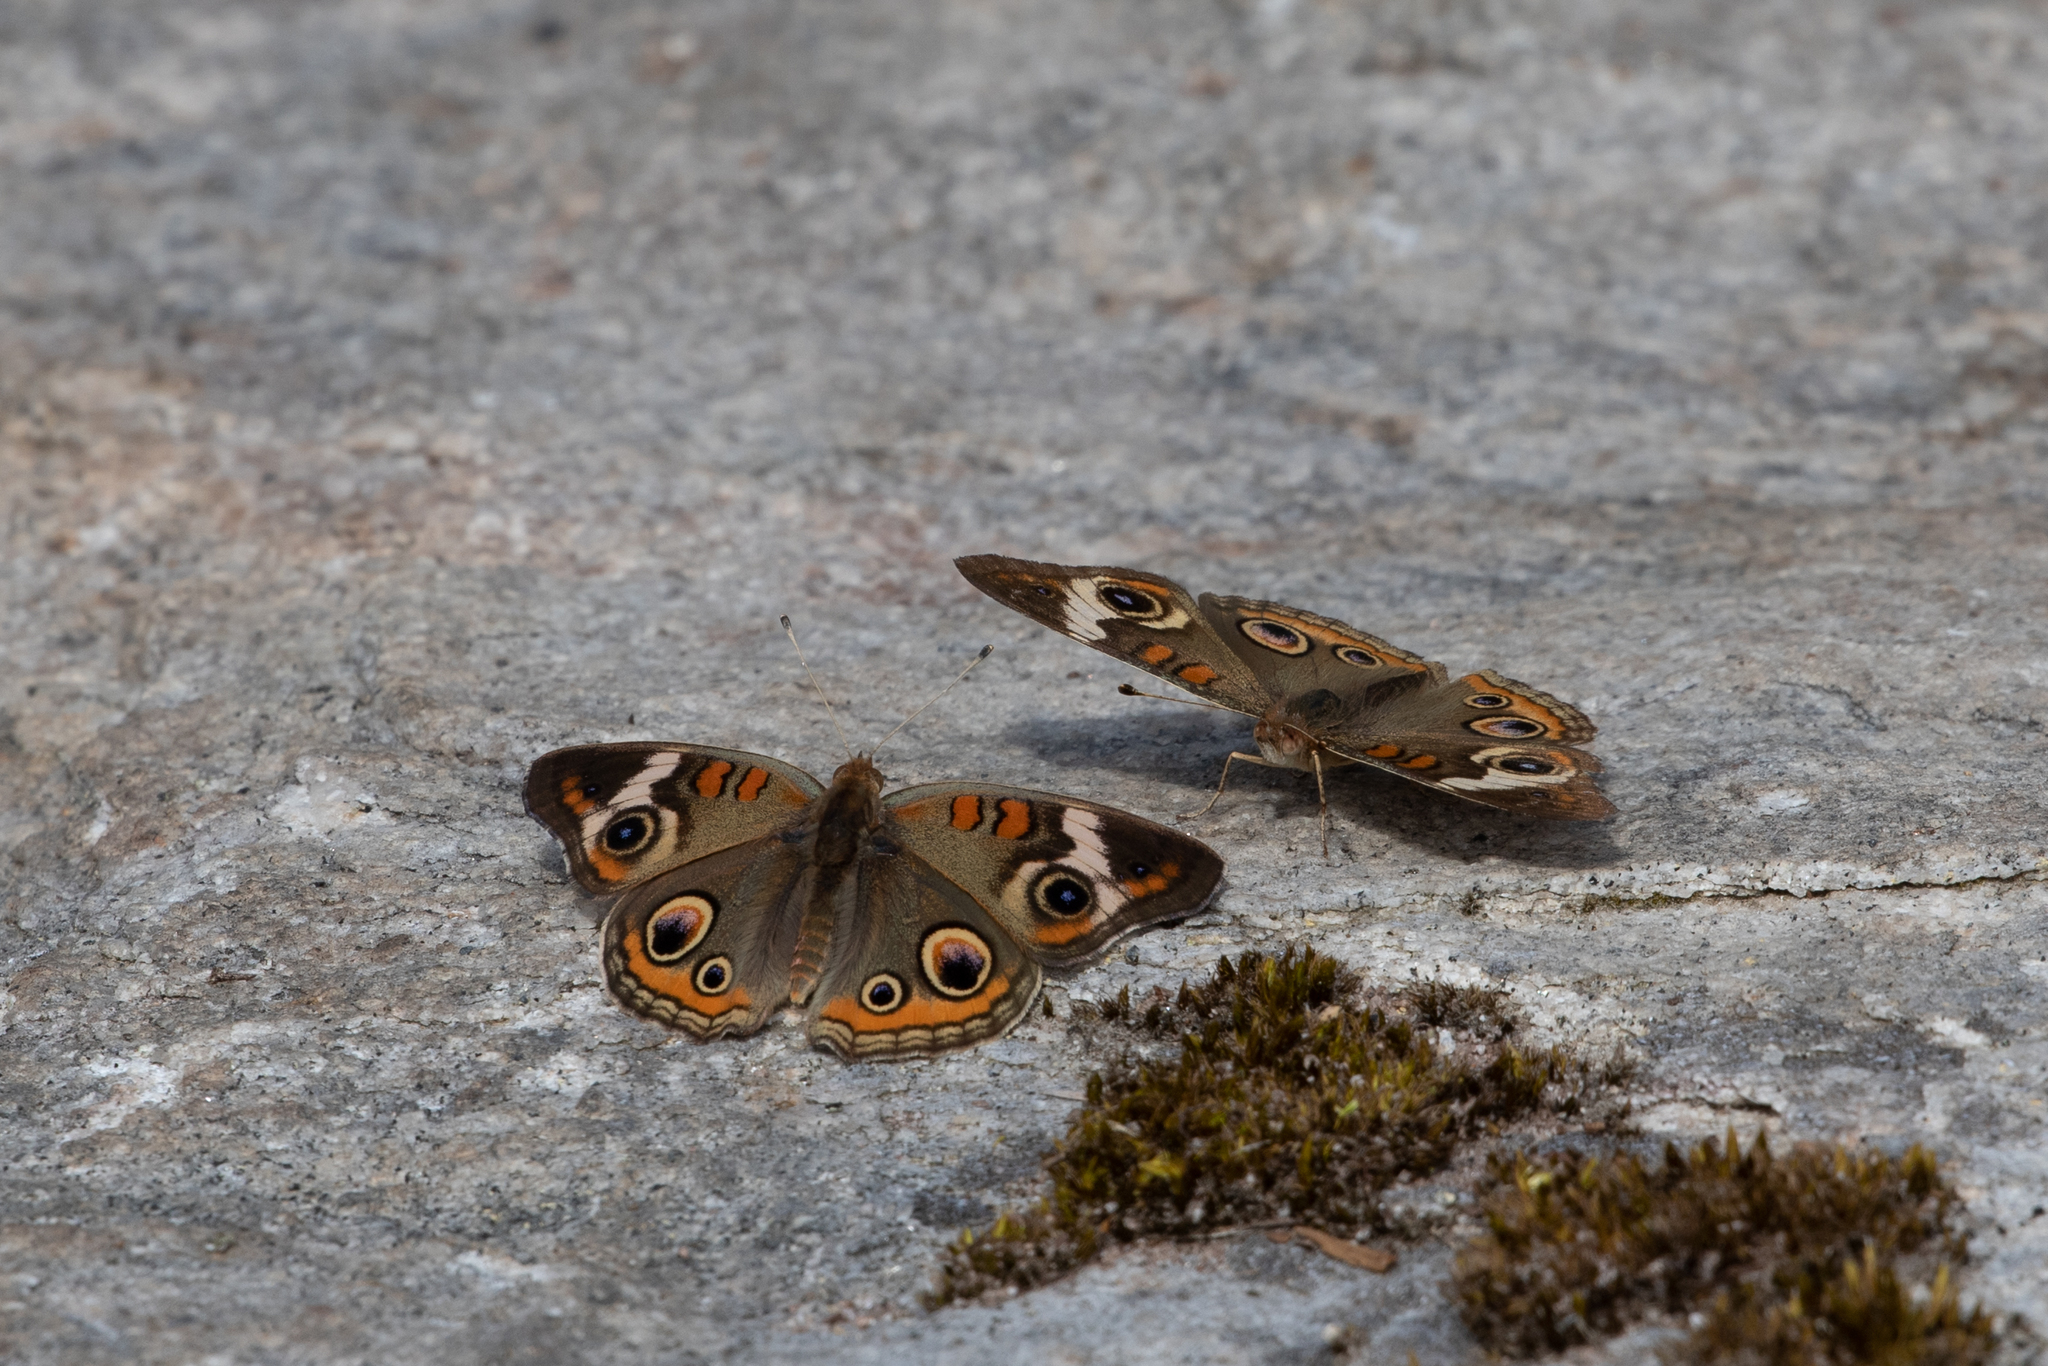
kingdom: Animalia
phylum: Arthropoda
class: Insecta
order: Lepidoptera
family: Nymphalidae
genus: Junonia
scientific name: Junonia coenia
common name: Common buckeye
